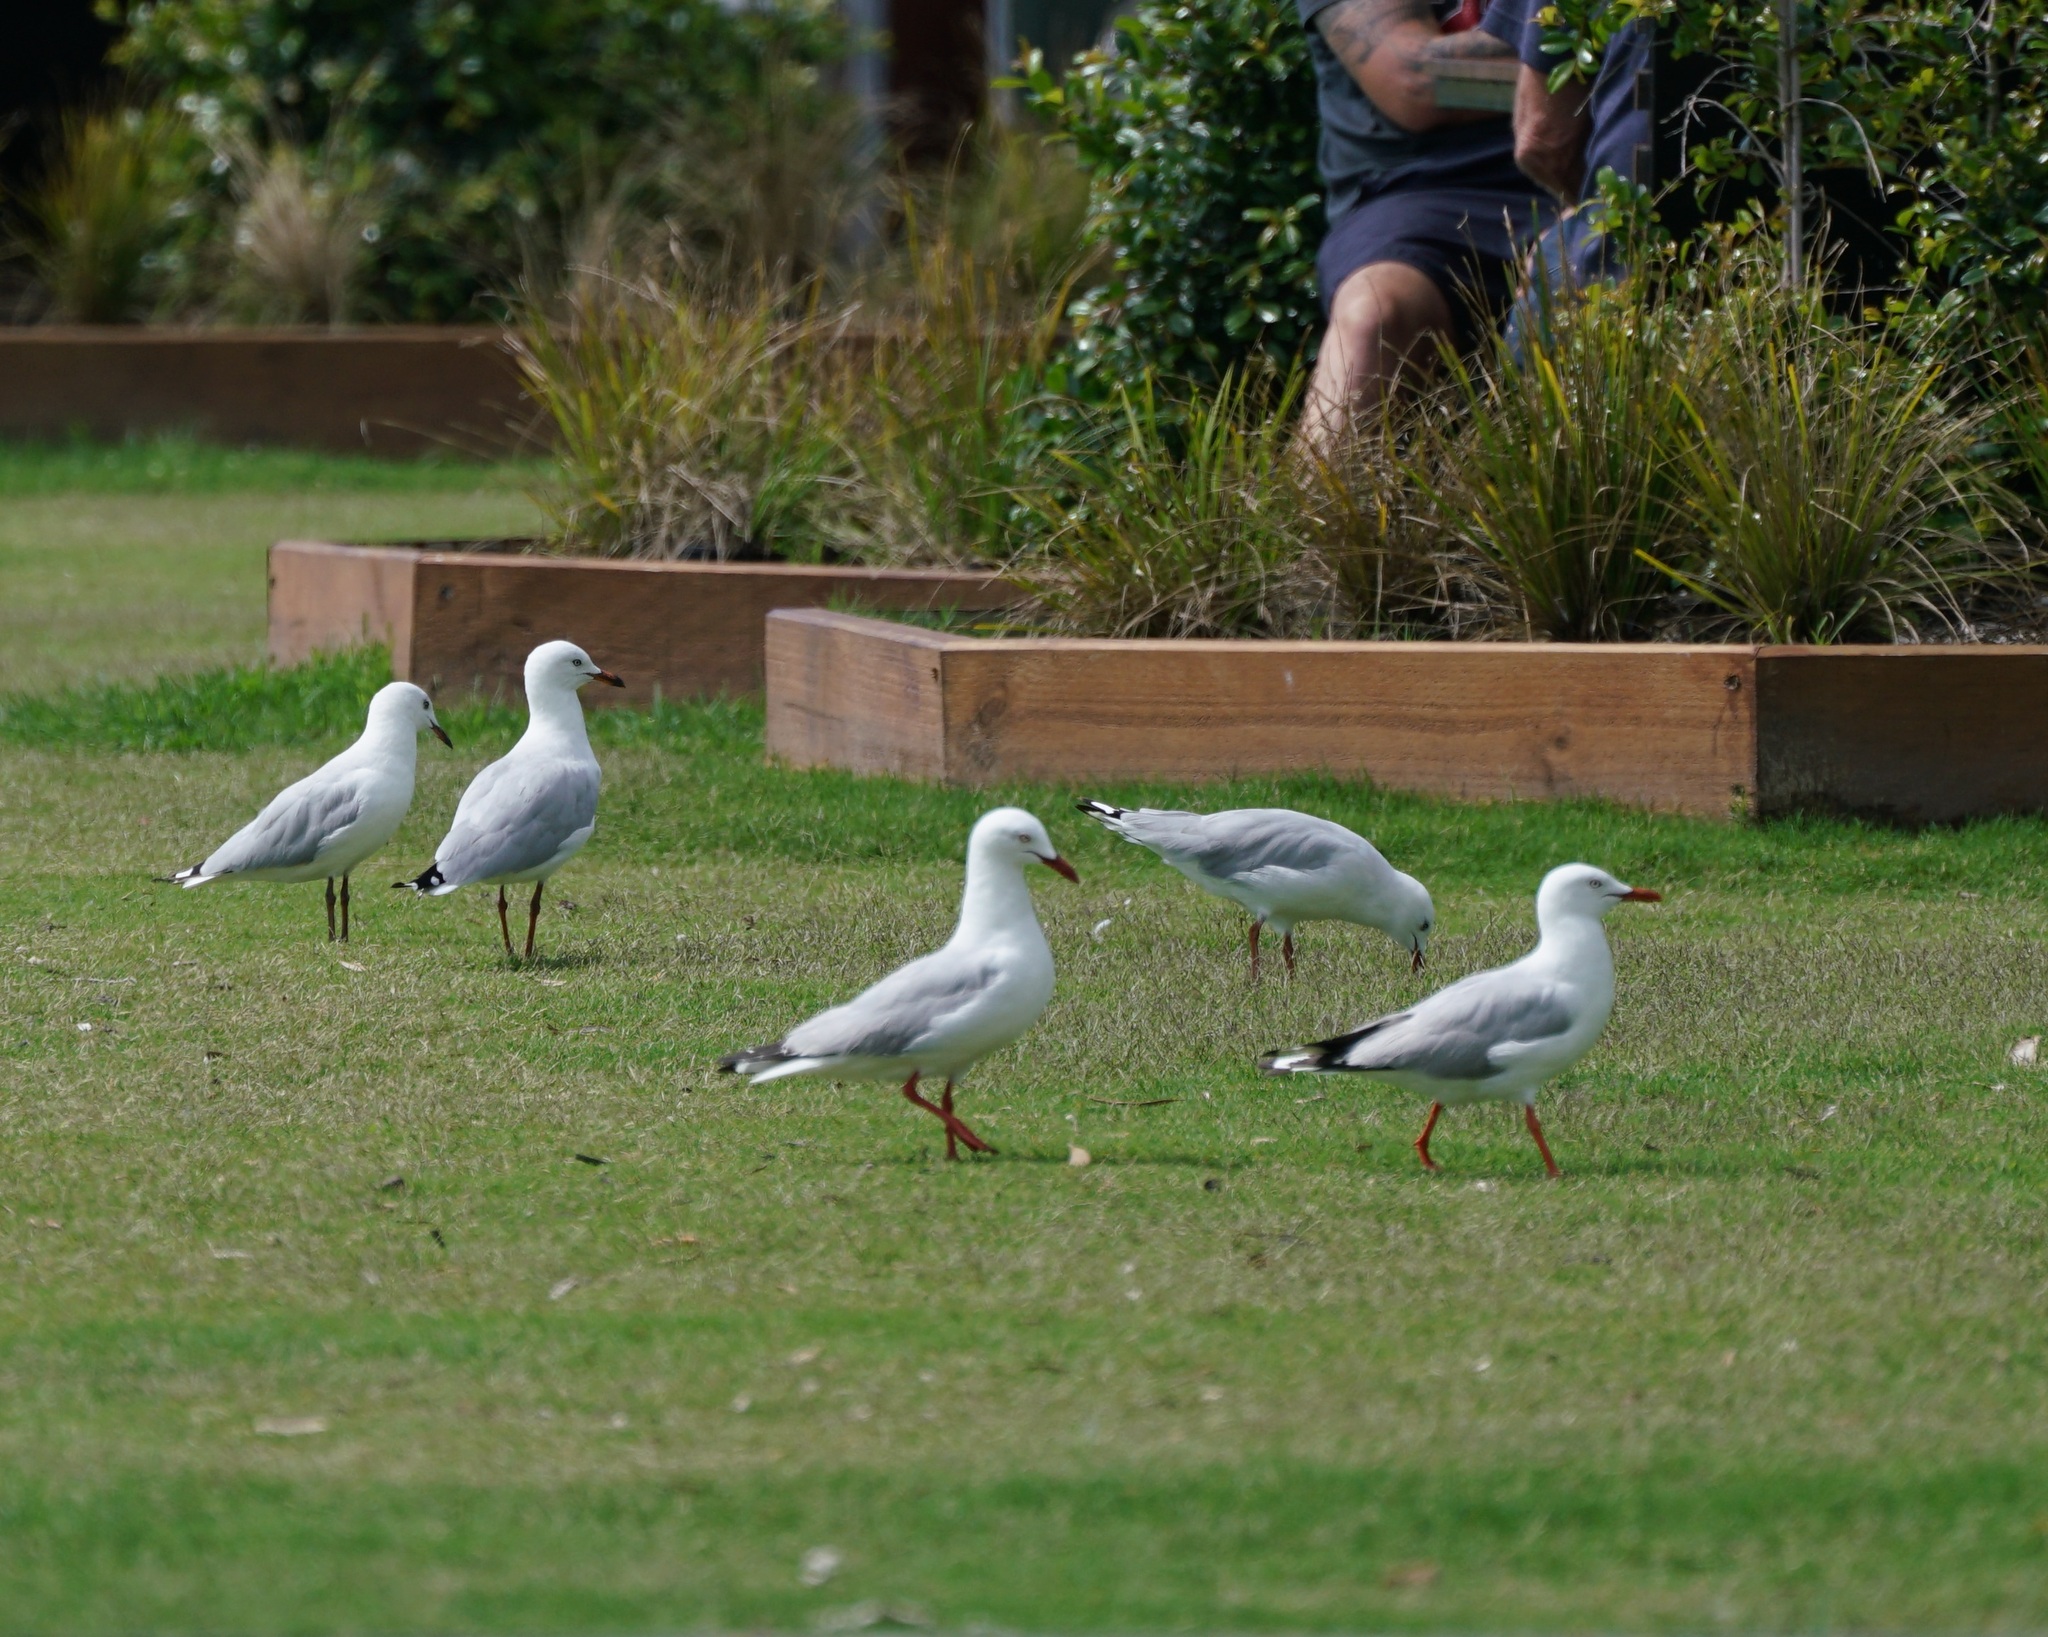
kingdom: Animalia
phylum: Chordata
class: Aves
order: Charadriiformes
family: Laridae
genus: Chroicocephalus
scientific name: Chroicocephalus novaehollandiae
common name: Silver gull
